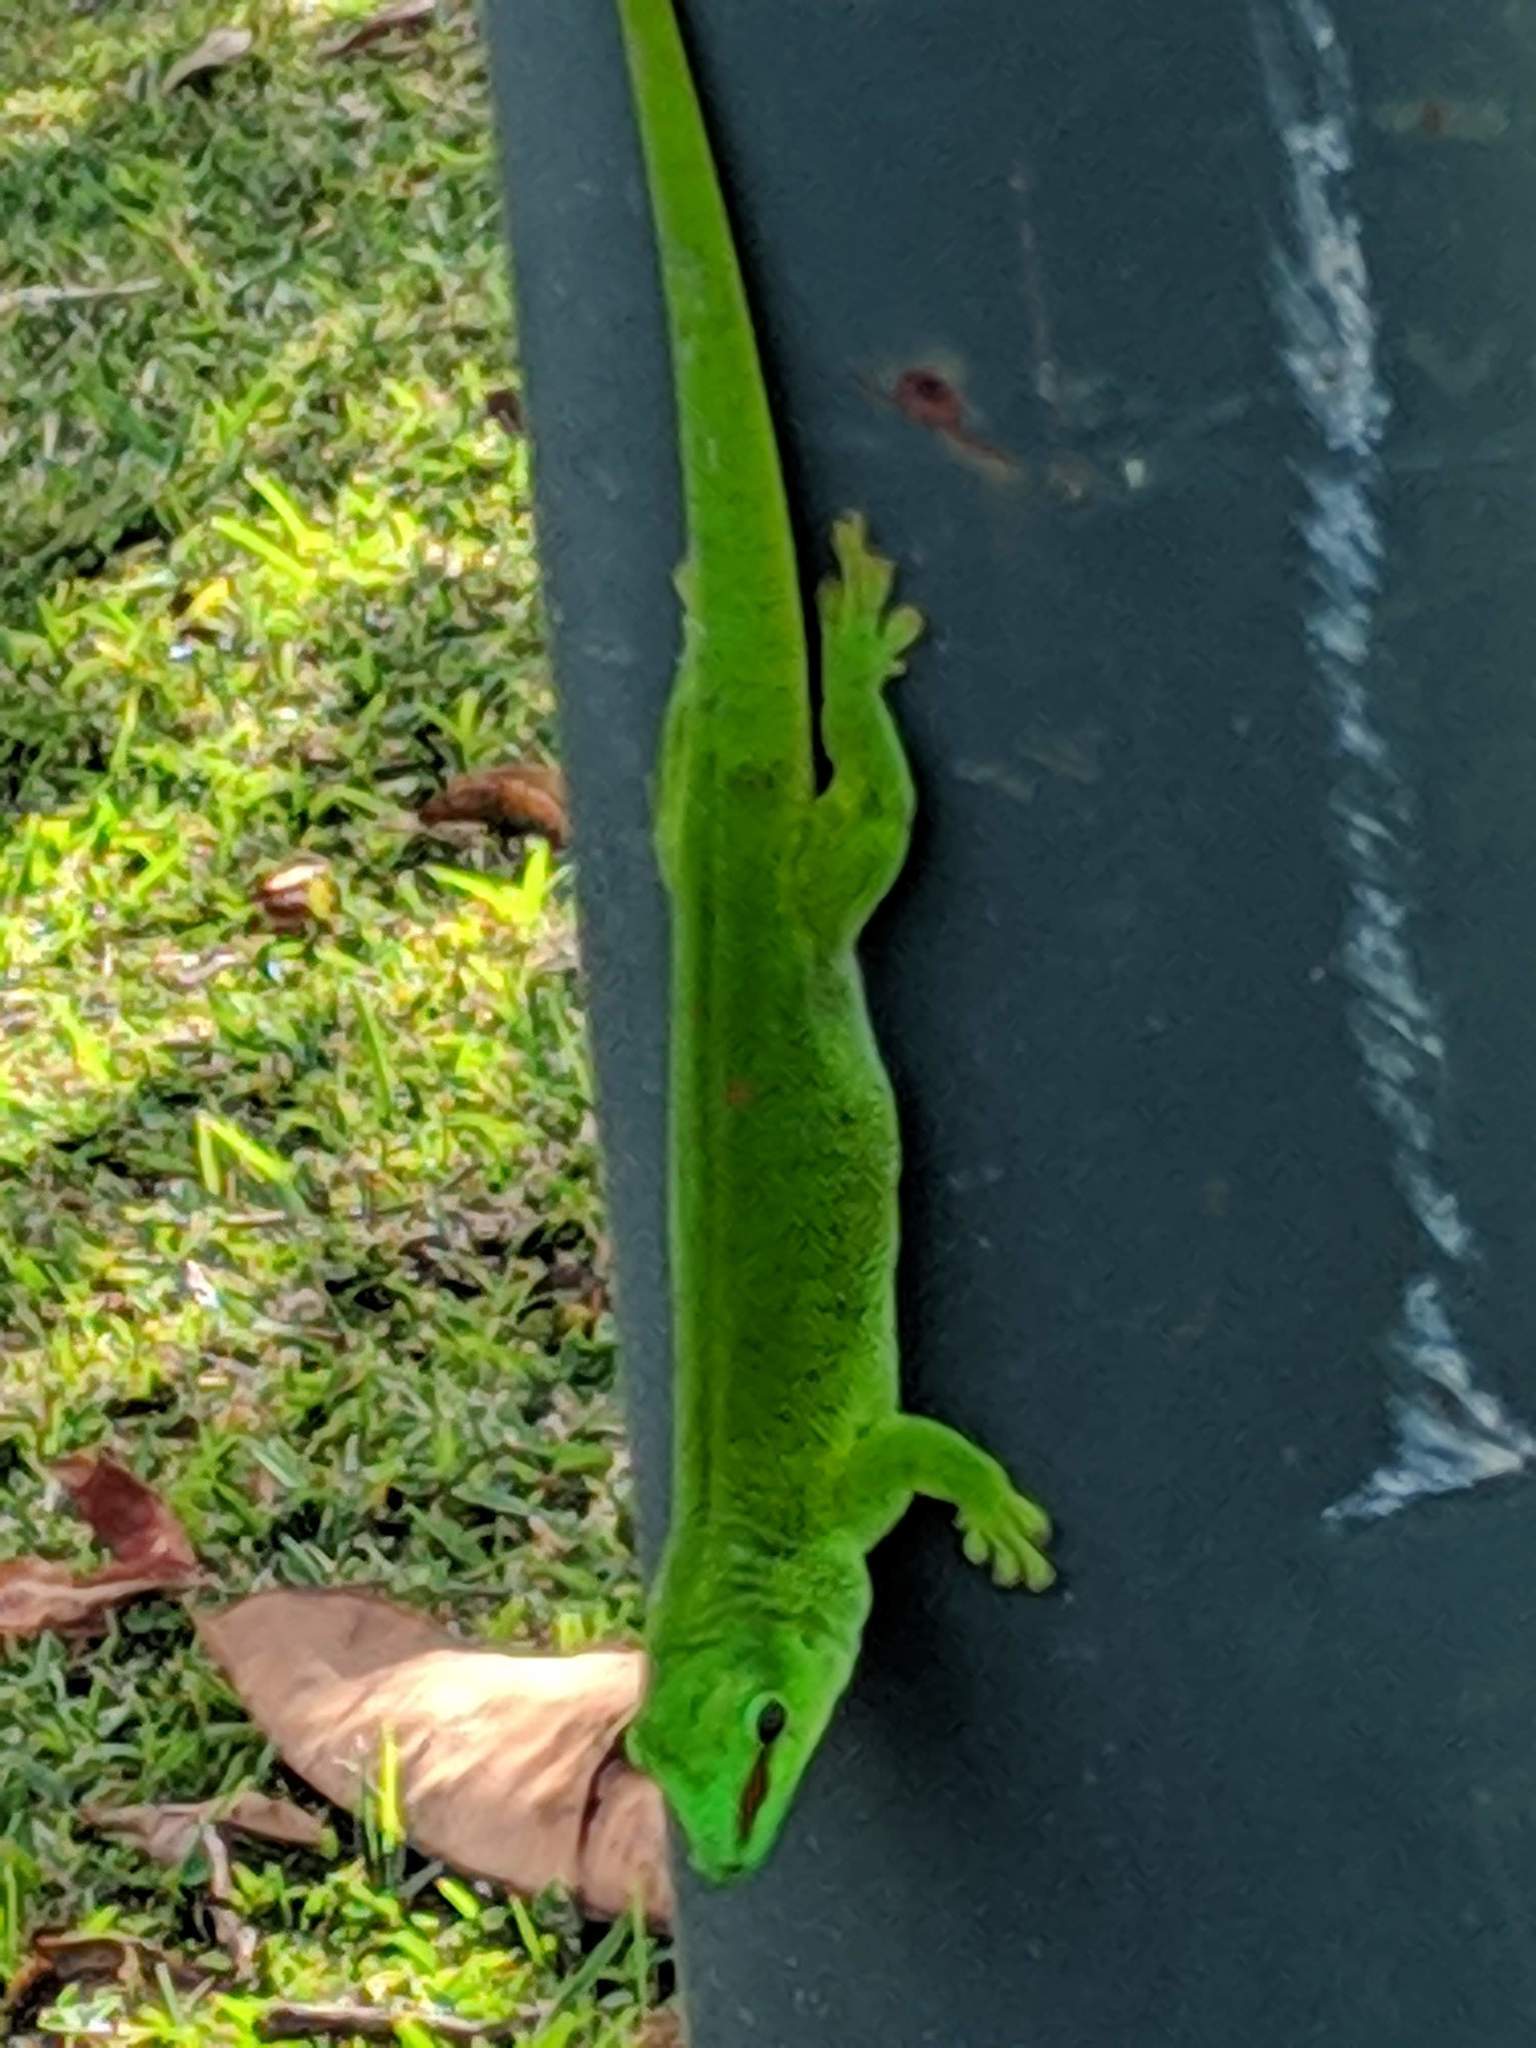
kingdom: Animalia
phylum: Chordata
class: Squamata
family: Gekkonidae
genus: Phelsuma
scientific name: Phelsuma grandis
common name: Madagascar giant day gecko
